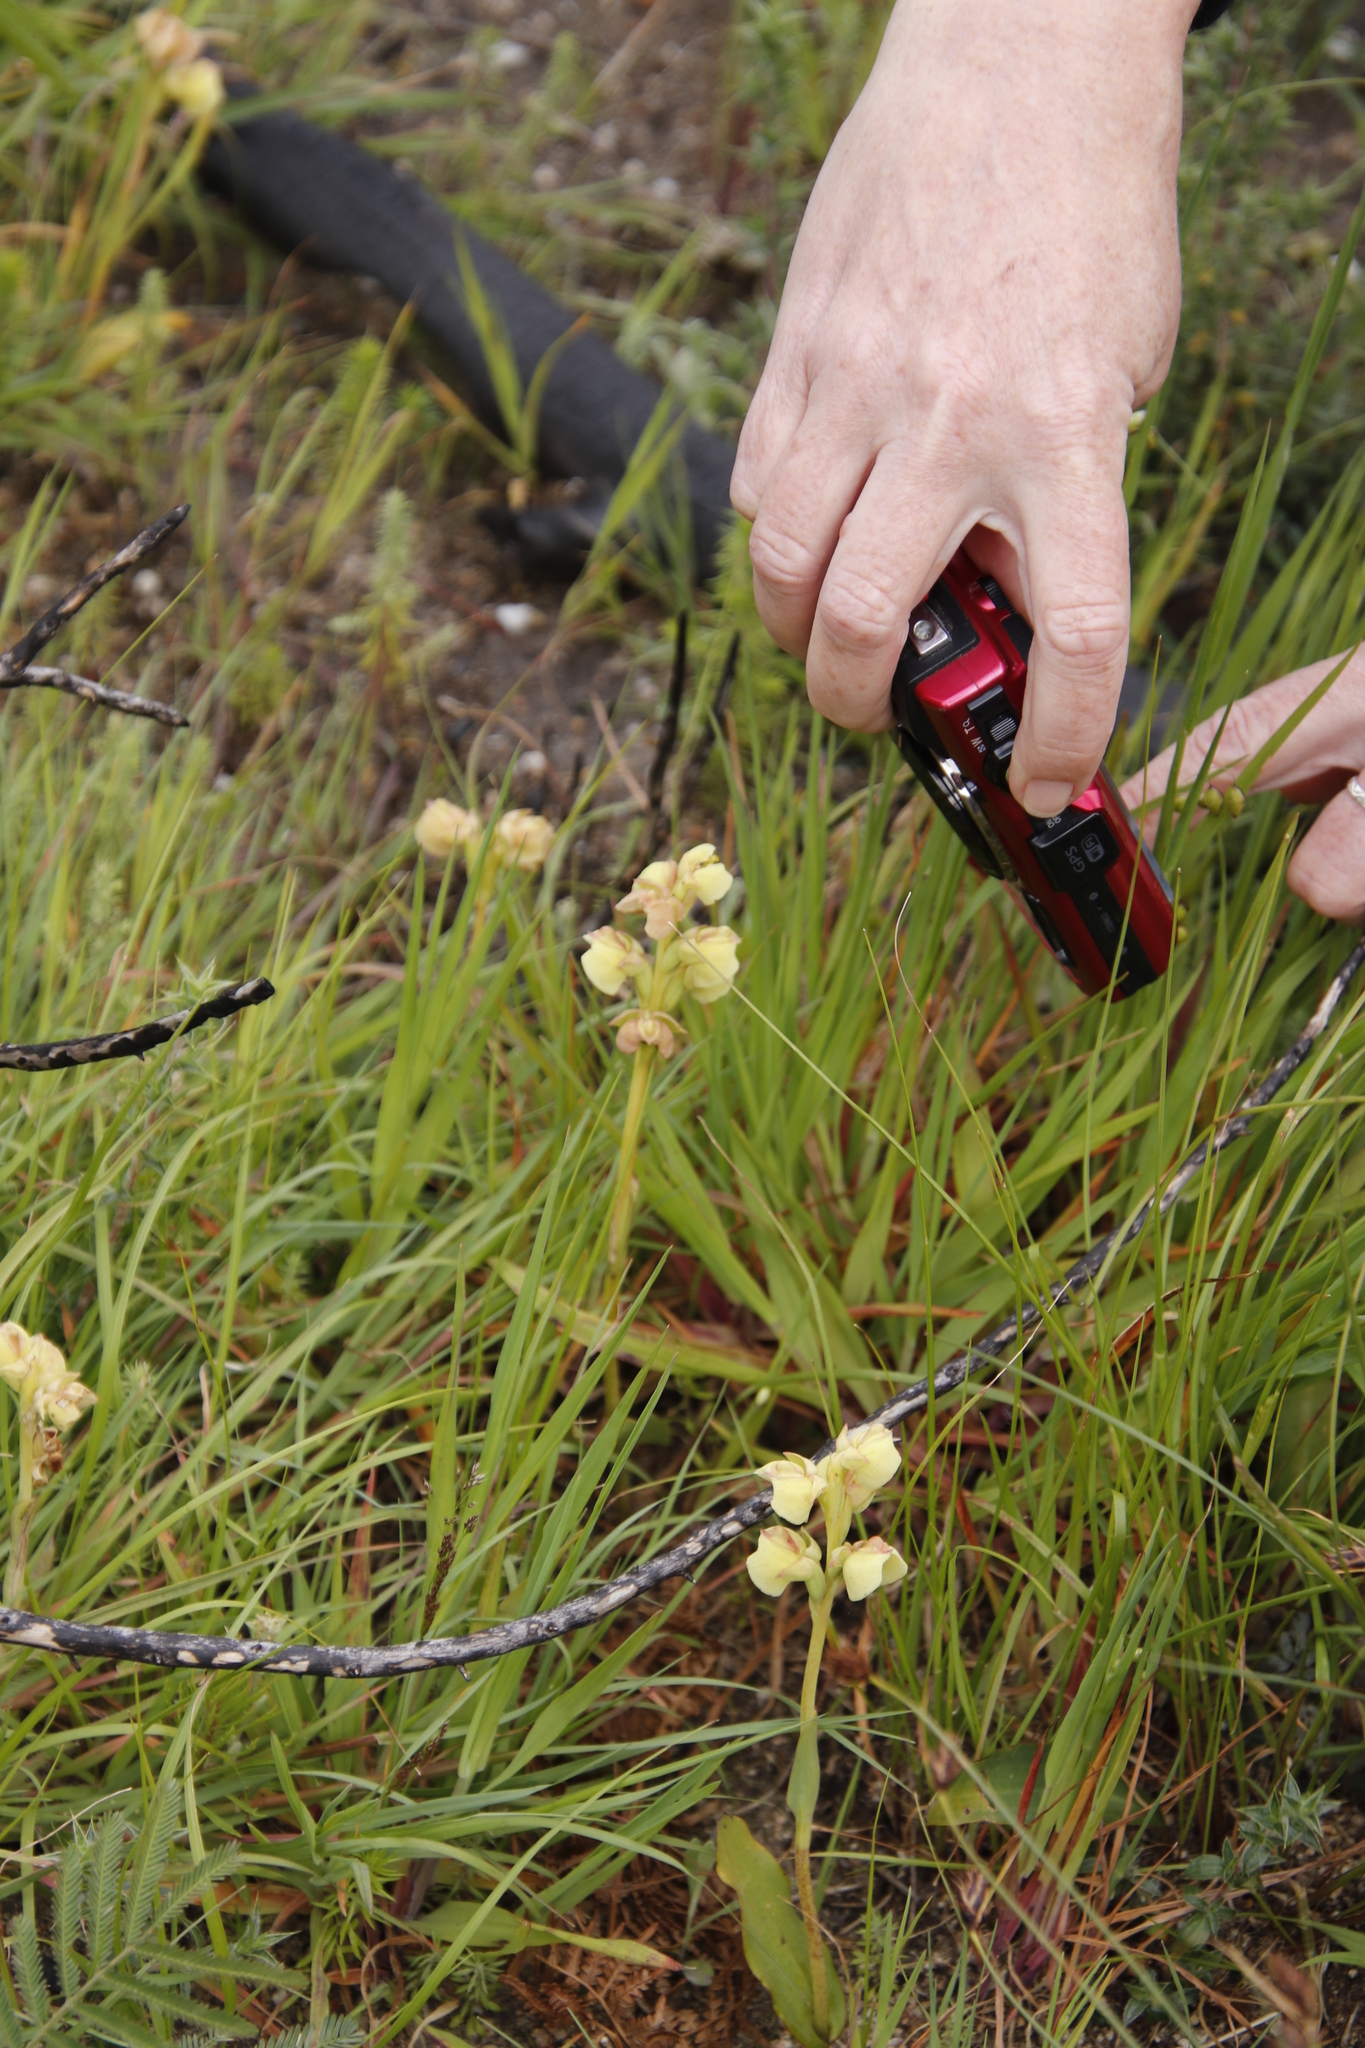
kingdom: Plantae
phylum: Tracheophyta
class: Liliopsida
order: Asparagales
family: Orchidaceae
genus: Pterygodium
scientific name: Pterygodium catholicum
